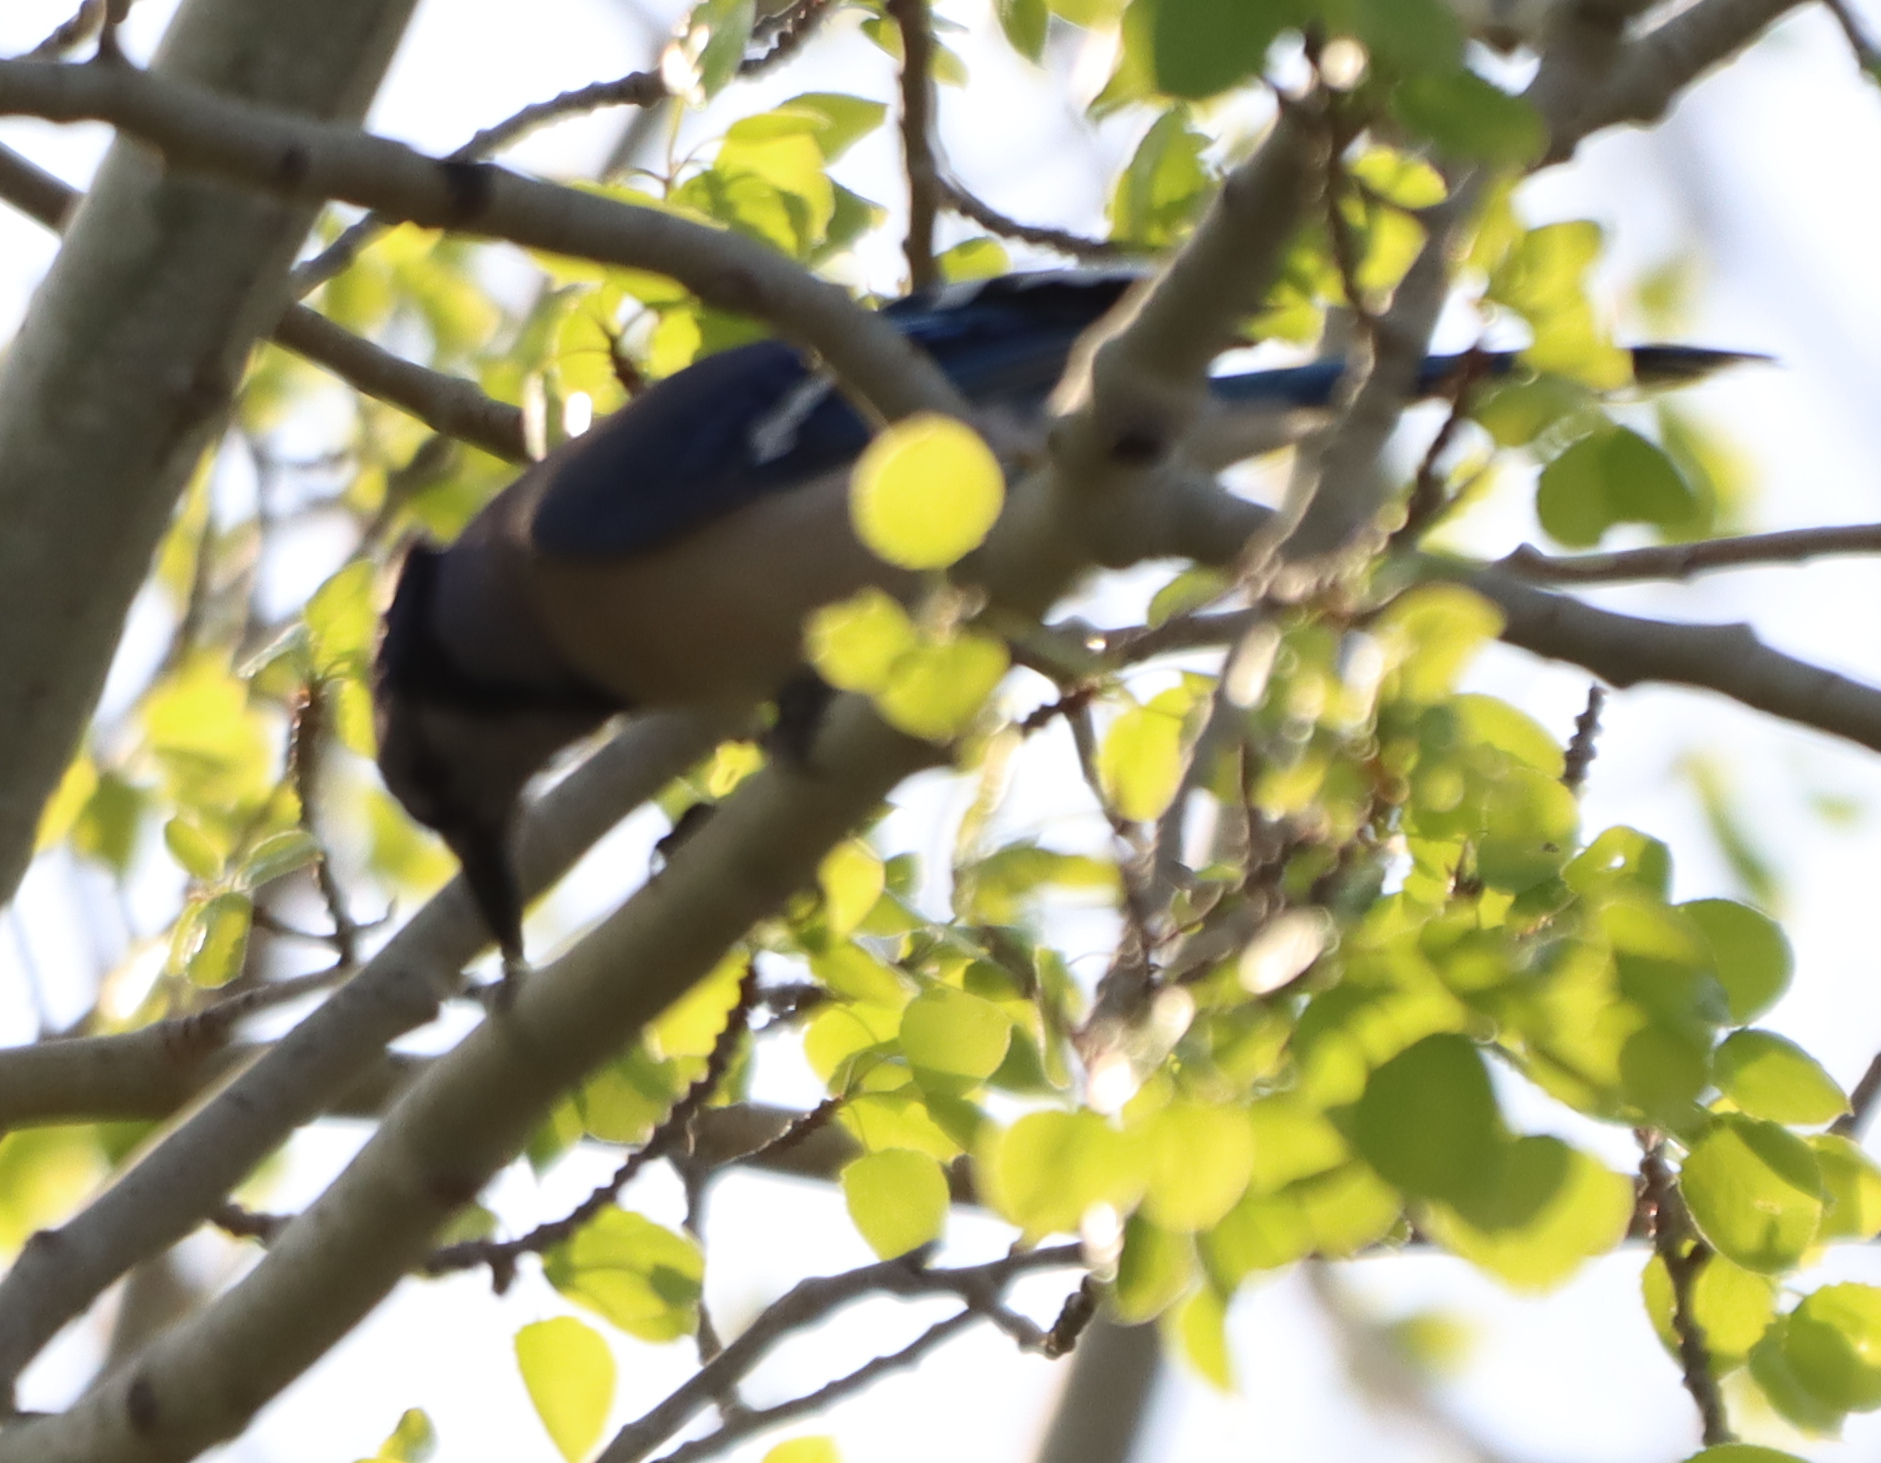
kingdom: Animalia
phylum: Chordata
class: Aves
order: Passeriformes
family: Corvidae
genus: Cyanocitta
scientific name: Cyanocitta cristata
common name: Blue jay
